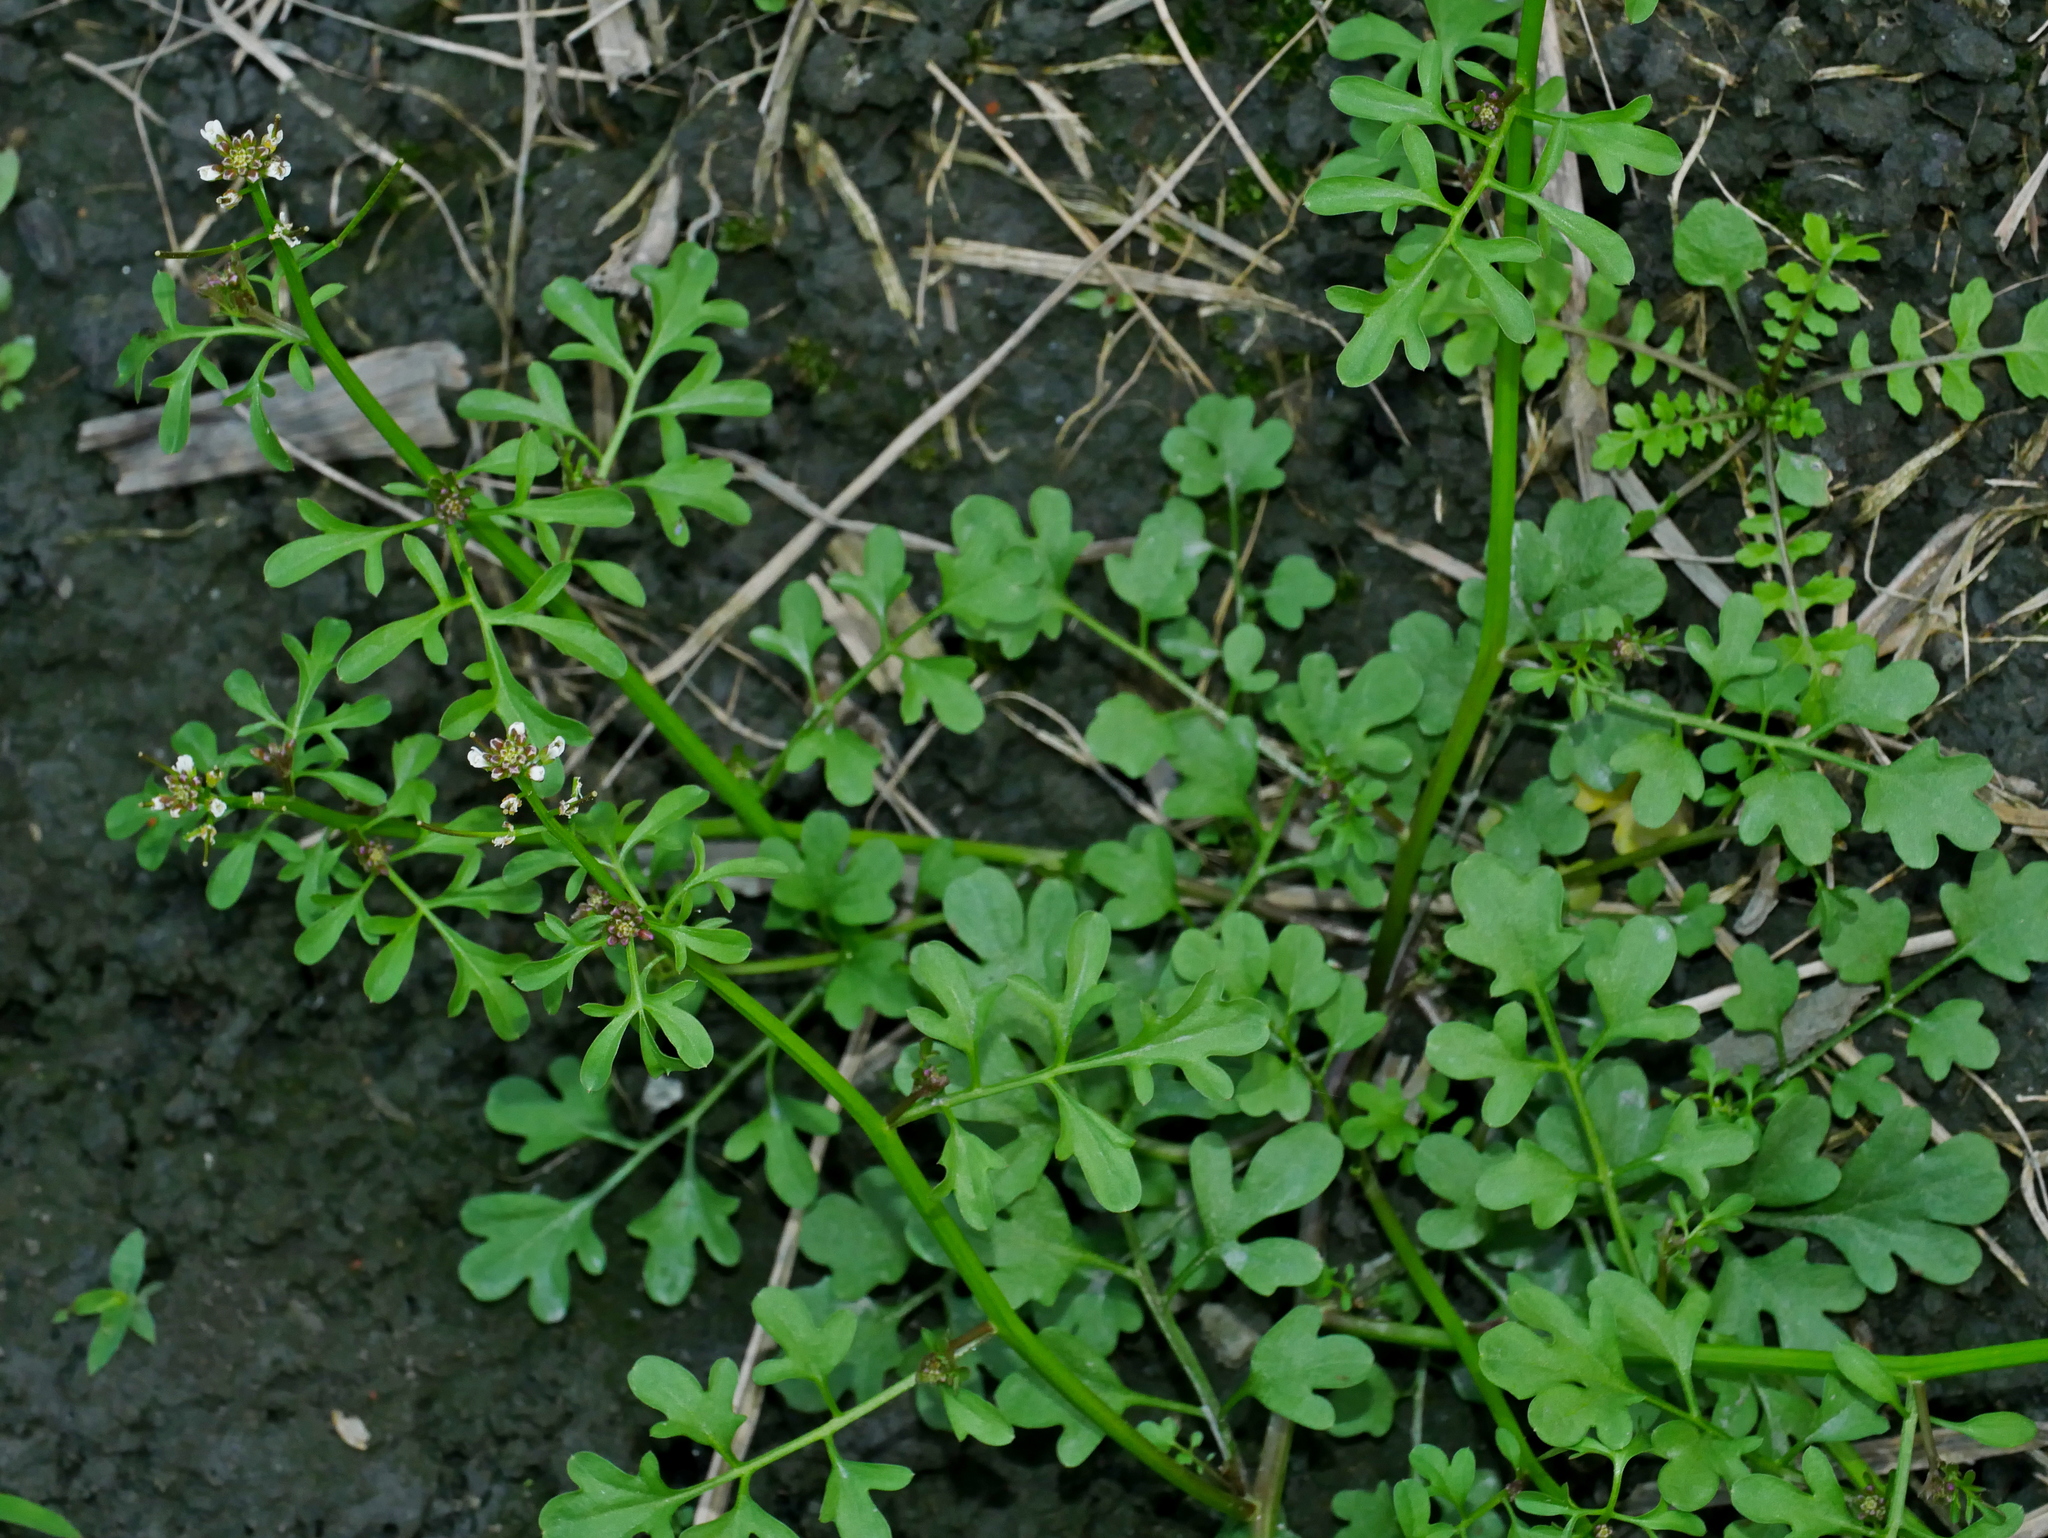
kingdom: Plantae
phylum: Tracheophyta
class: Magnoliopsida
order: Brassicales
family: Brassicaceae
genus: Cardamine
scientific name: Cardamine flexuosa
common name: Woodland bittercress
